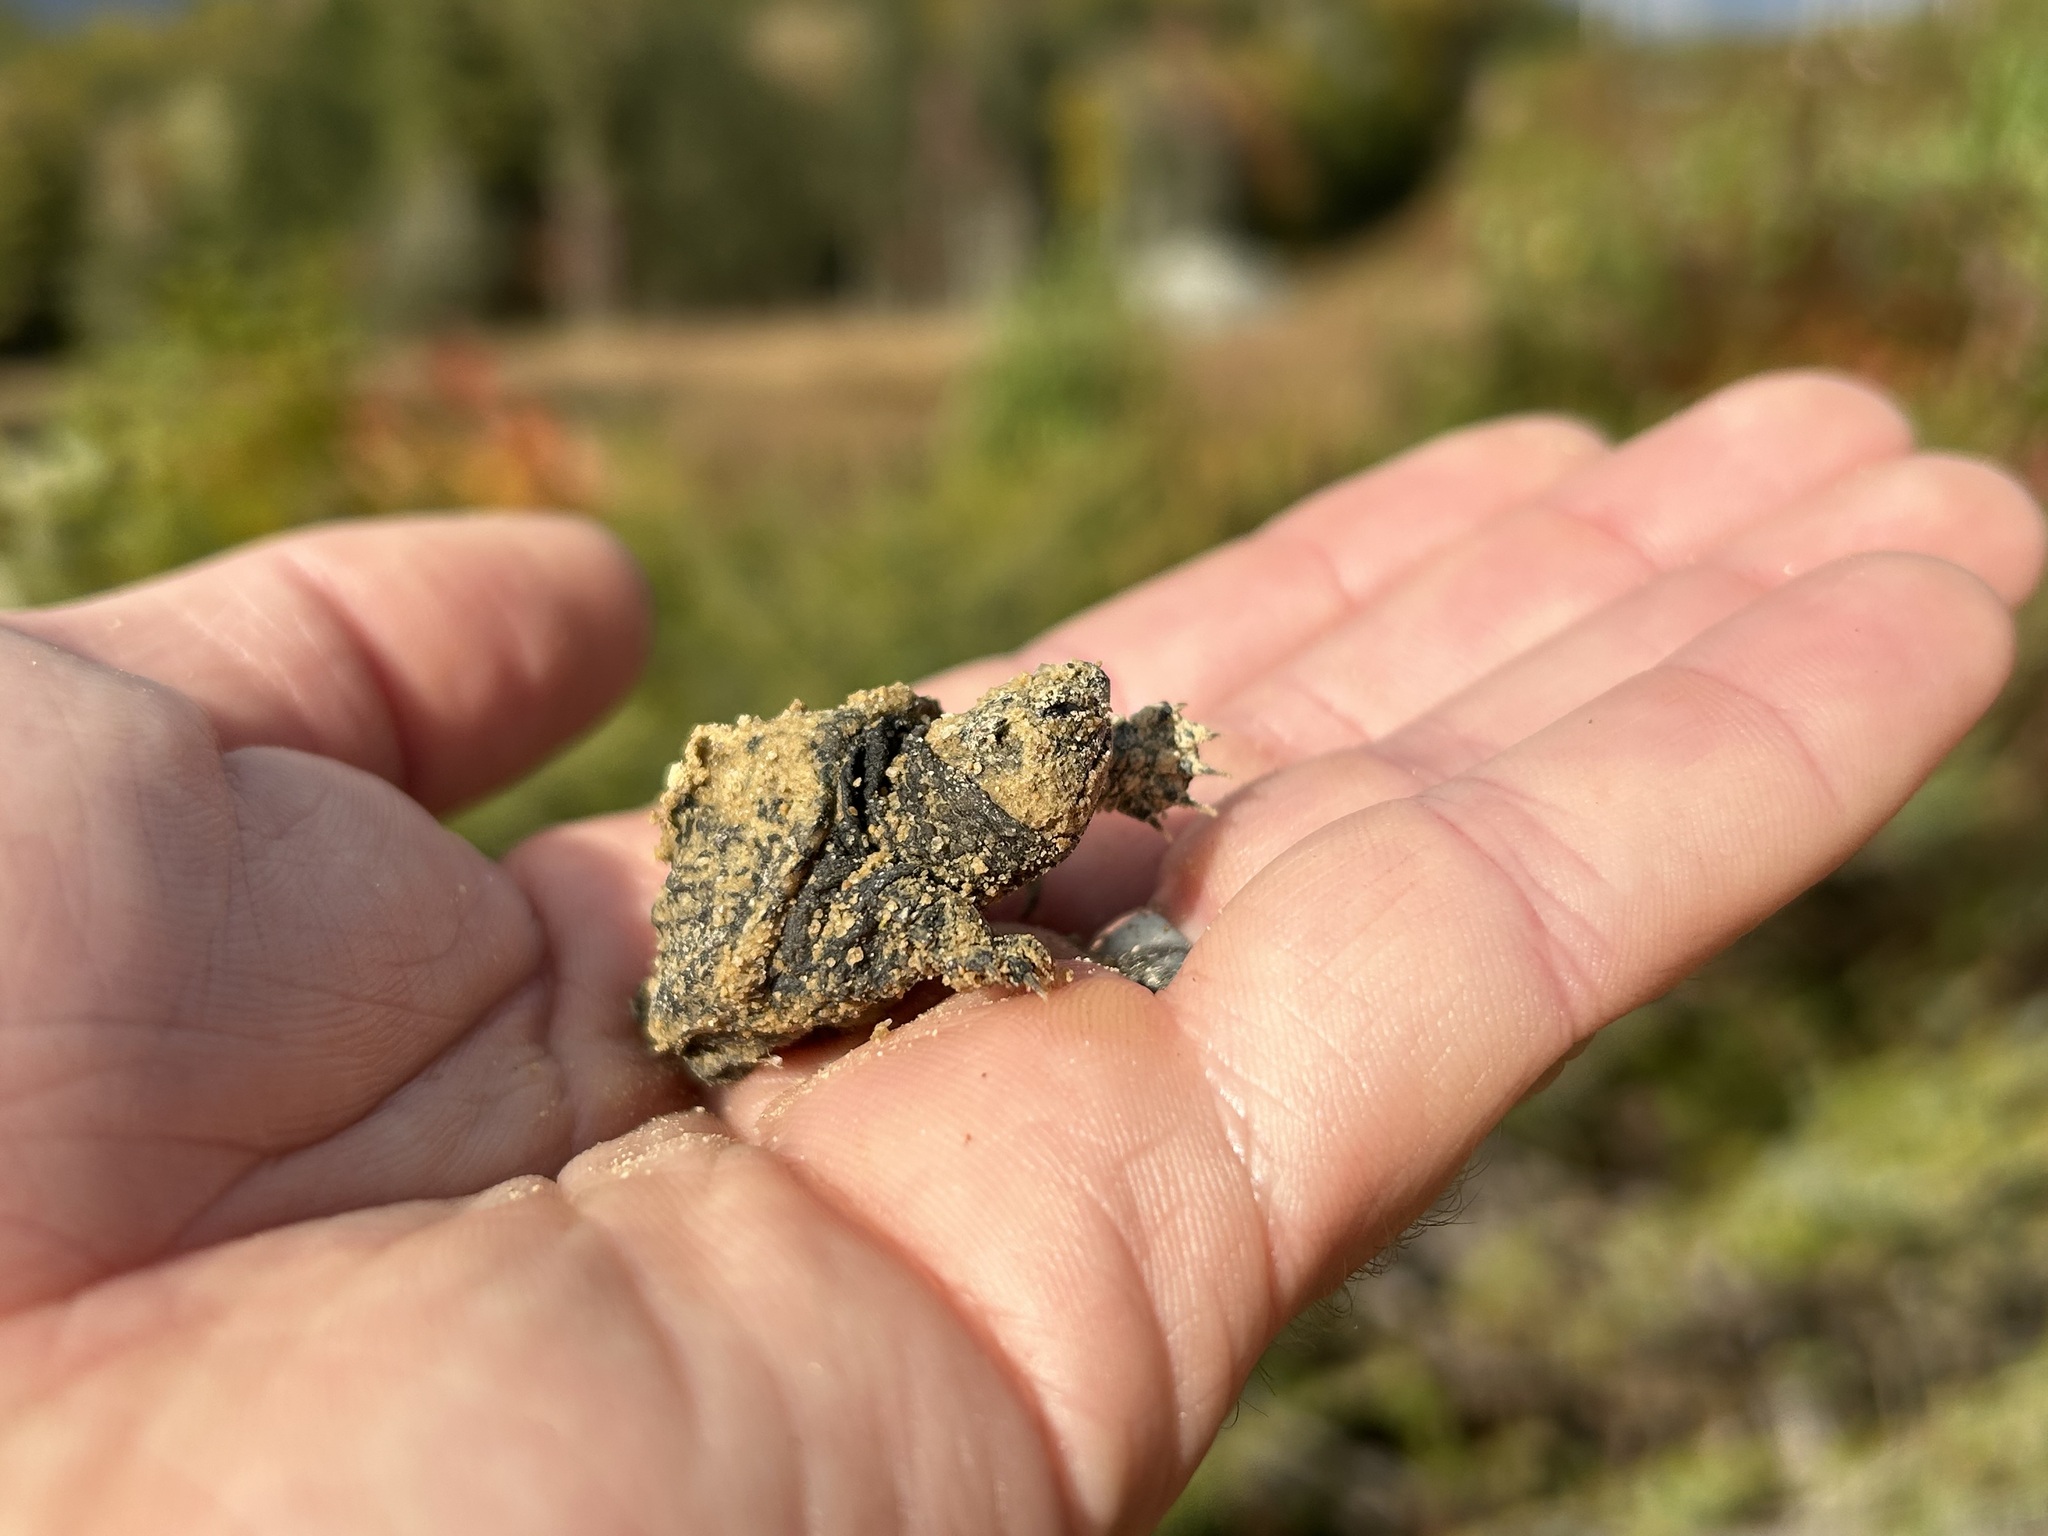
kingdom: Animalia
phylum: Chordata
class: Testudines
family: Chelydridae
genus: Chelydra
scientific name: Chelydra serpentina
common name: Common snapping turtle
